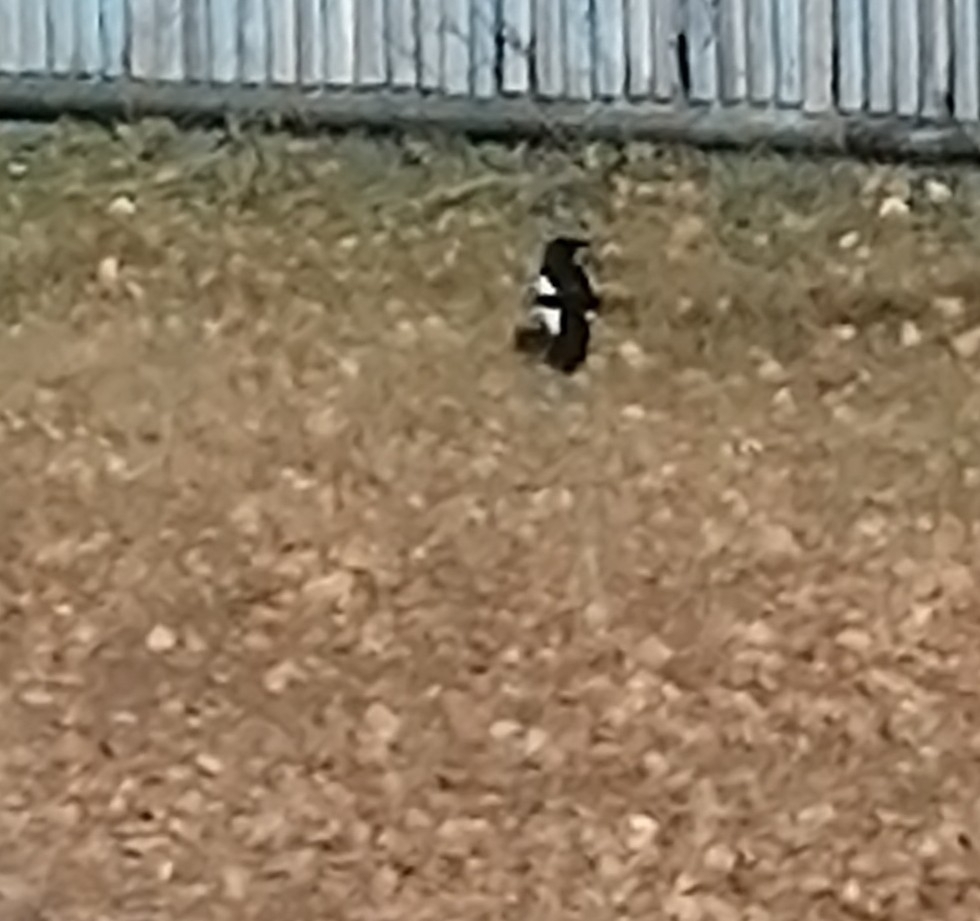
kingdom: Animalia
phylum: Chordata
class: Aves
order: Passeriformes
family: Corvidae
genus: Pica
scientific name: Pica pica
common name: Eurasian magpie
